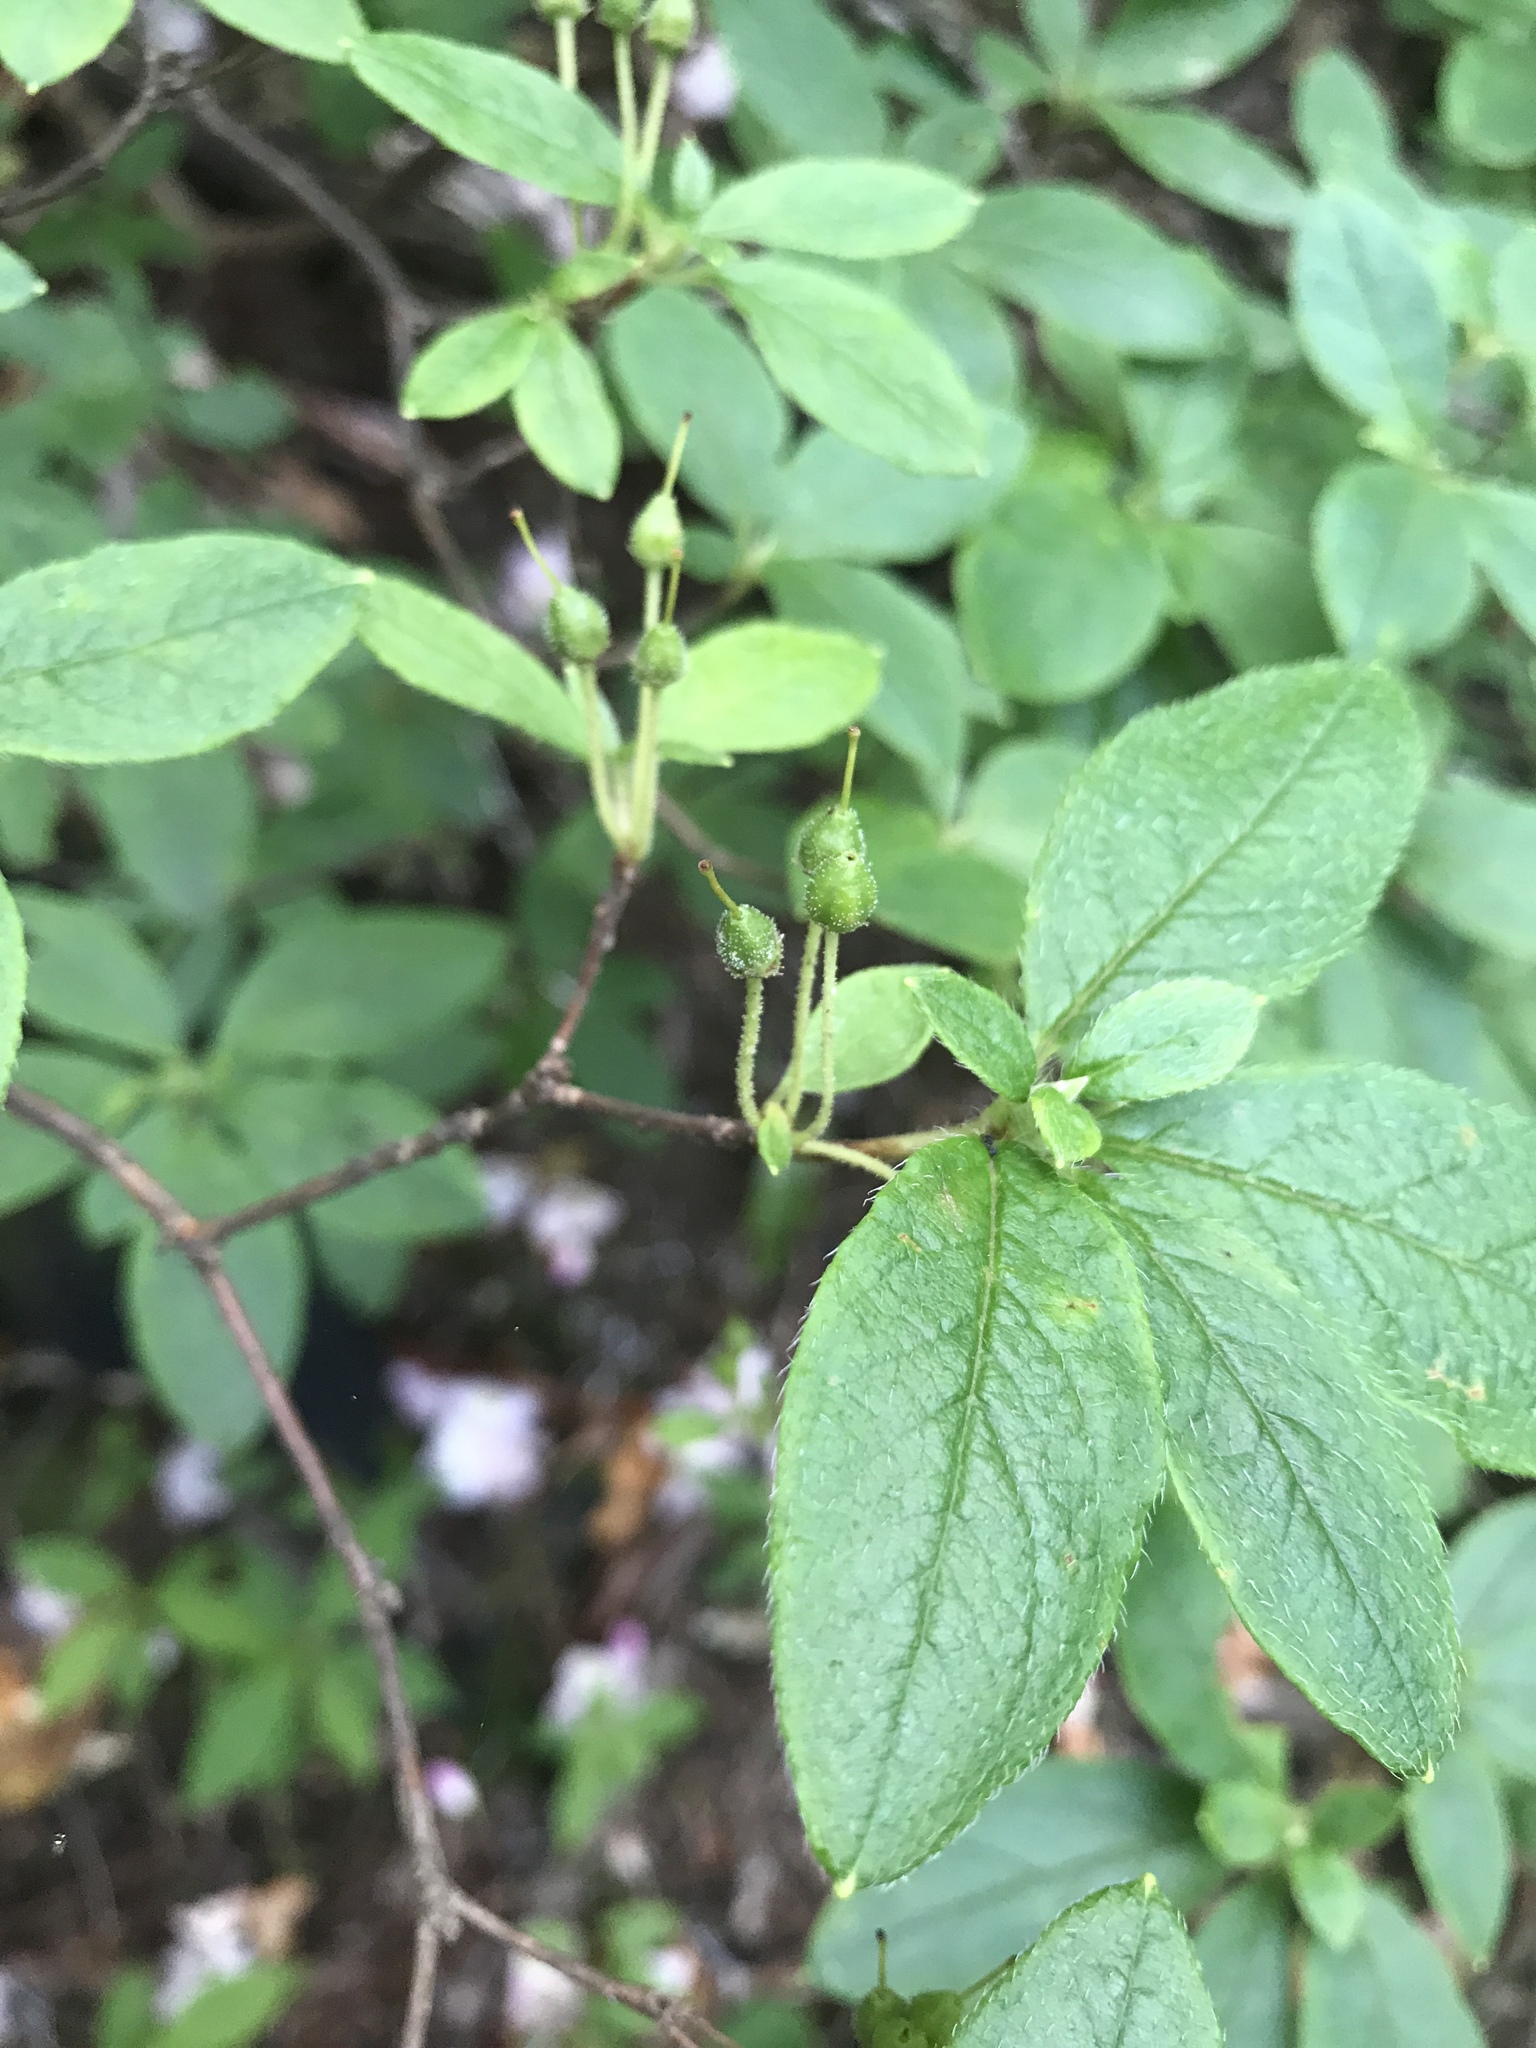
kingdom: Plantae
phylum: Tracheophyta
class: Magnoliopsida
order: Ericales
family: Ericaceae
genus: Rhododendron
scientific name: Rhododendron pilosum
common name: Hairy minniebush
